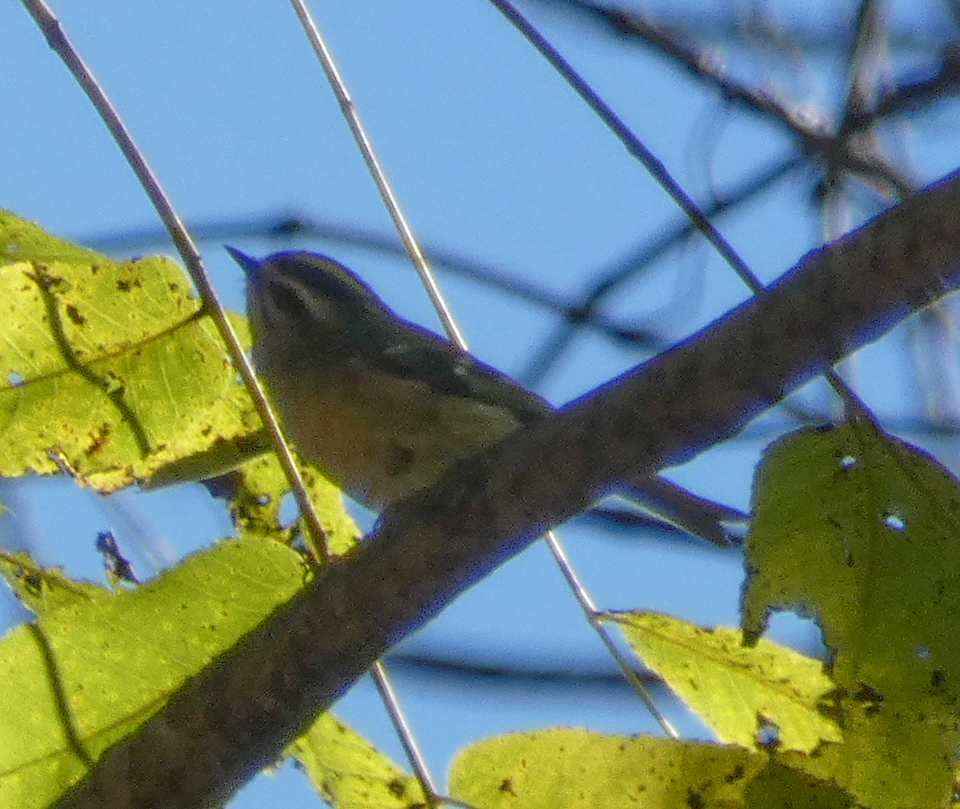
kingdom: Animalia
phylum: Chordata
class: Aves
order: Passeriformes
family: Regulidae
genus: Regulus
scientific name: Regulus satrapa
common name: Golden-crowned kinglet
